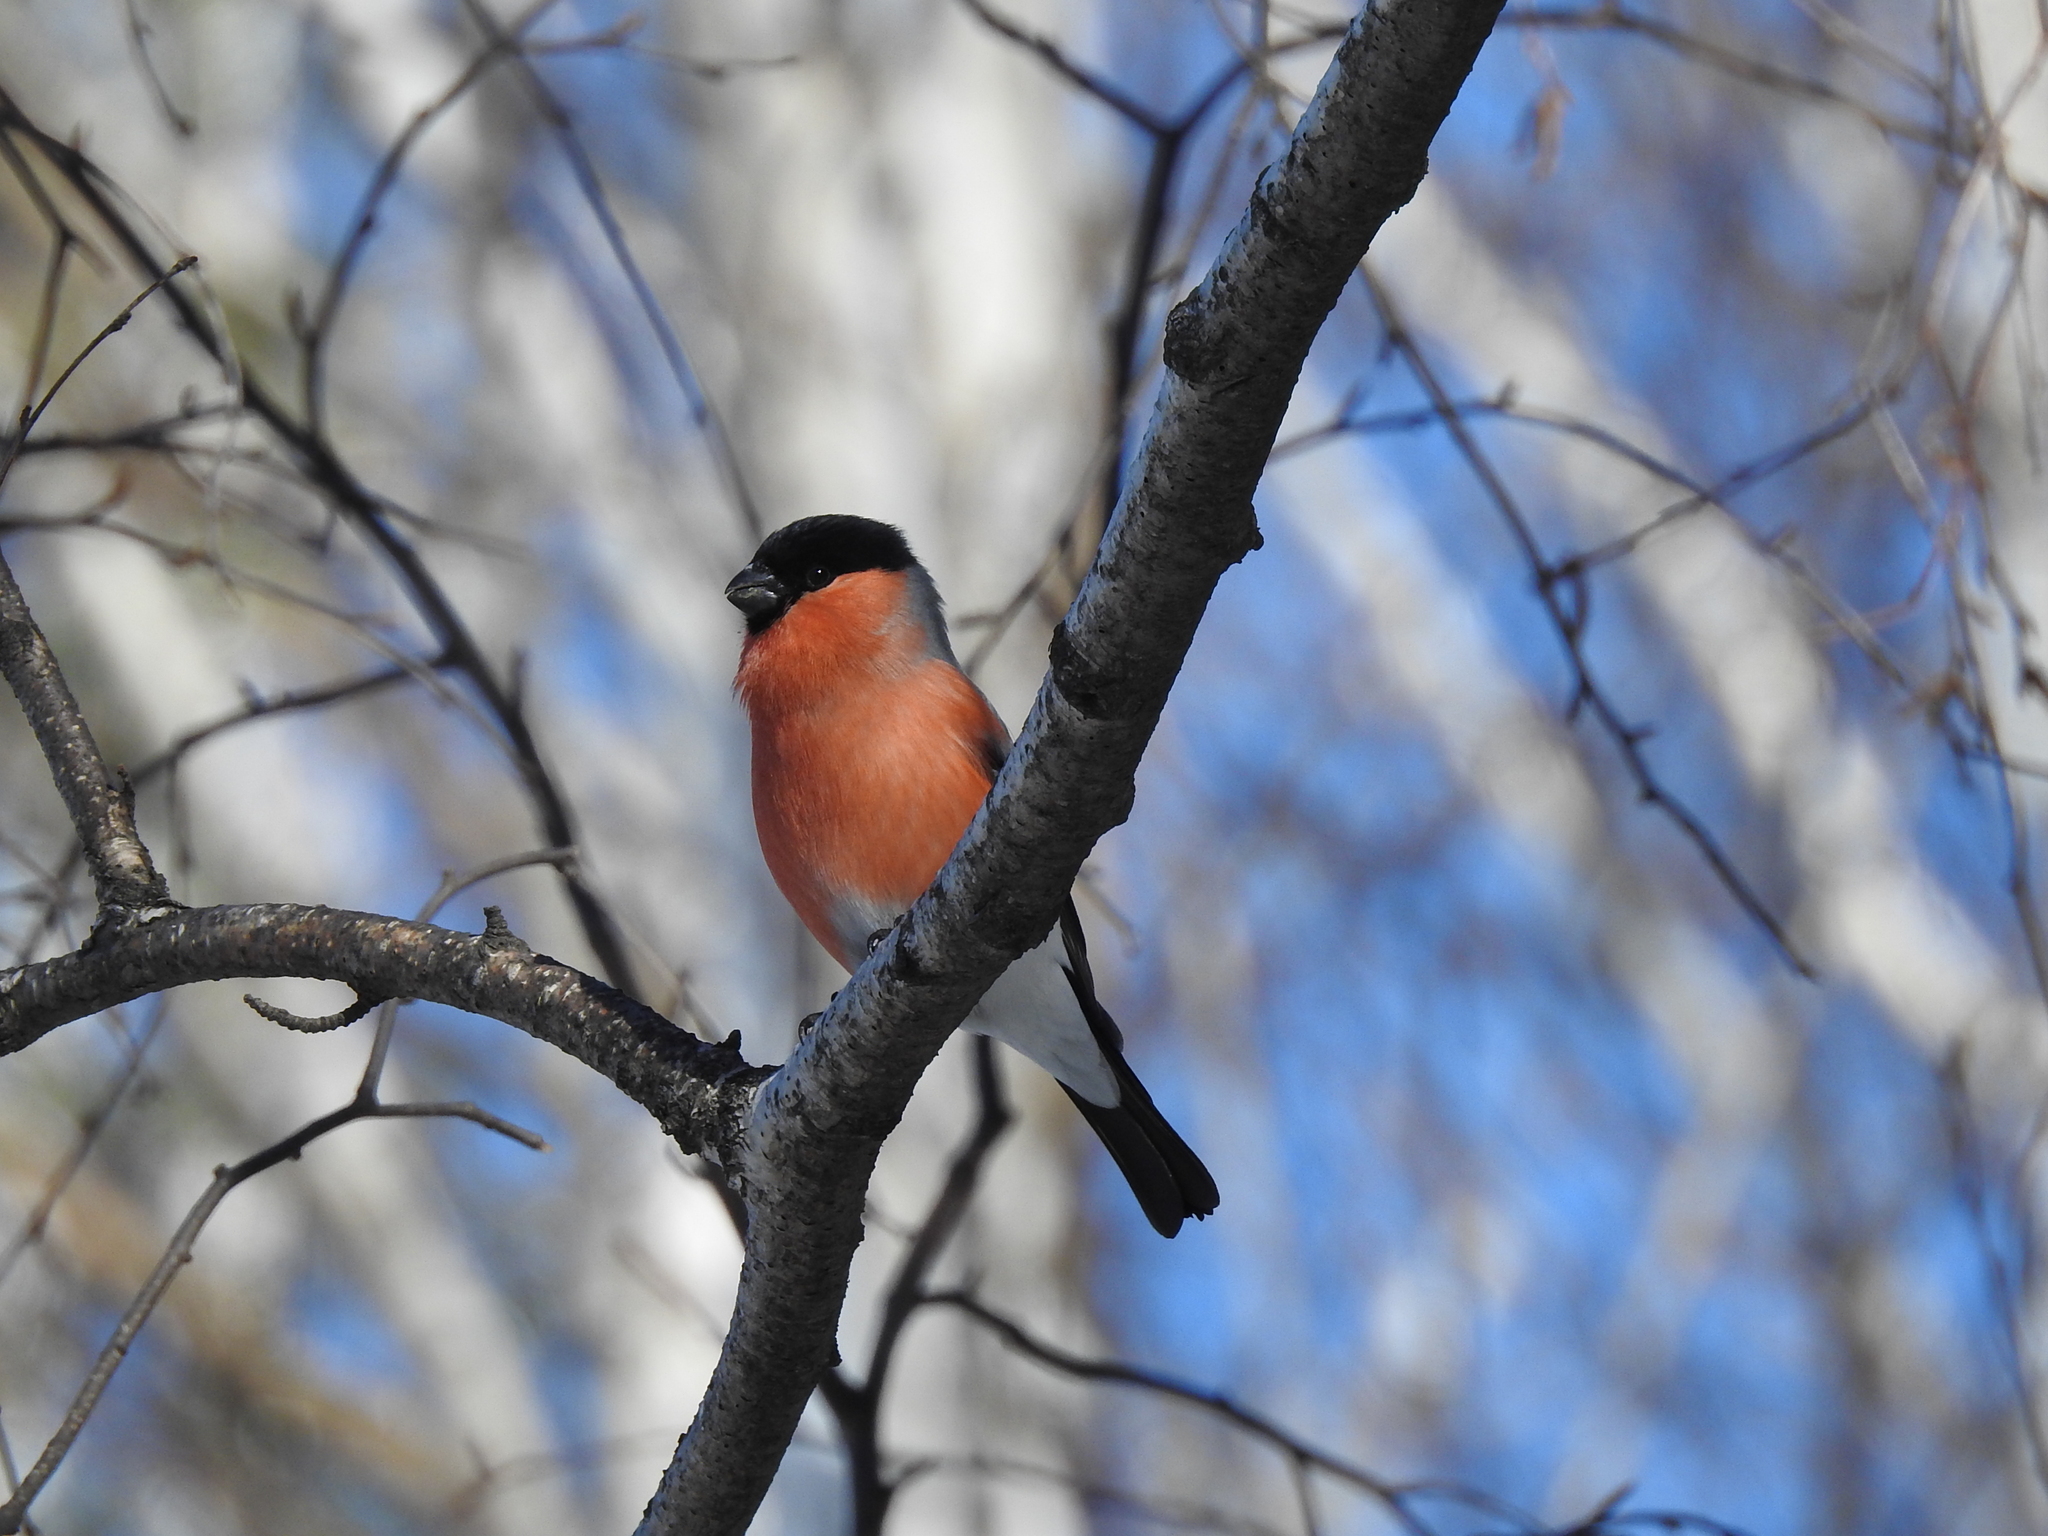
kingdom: Animalia
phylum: Chordata
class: Aves
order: Passeriformes
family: Fringillidae
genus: Pyrrhula
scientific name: Pyrrhula pyrrhula
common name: Eurasian bullfinch
